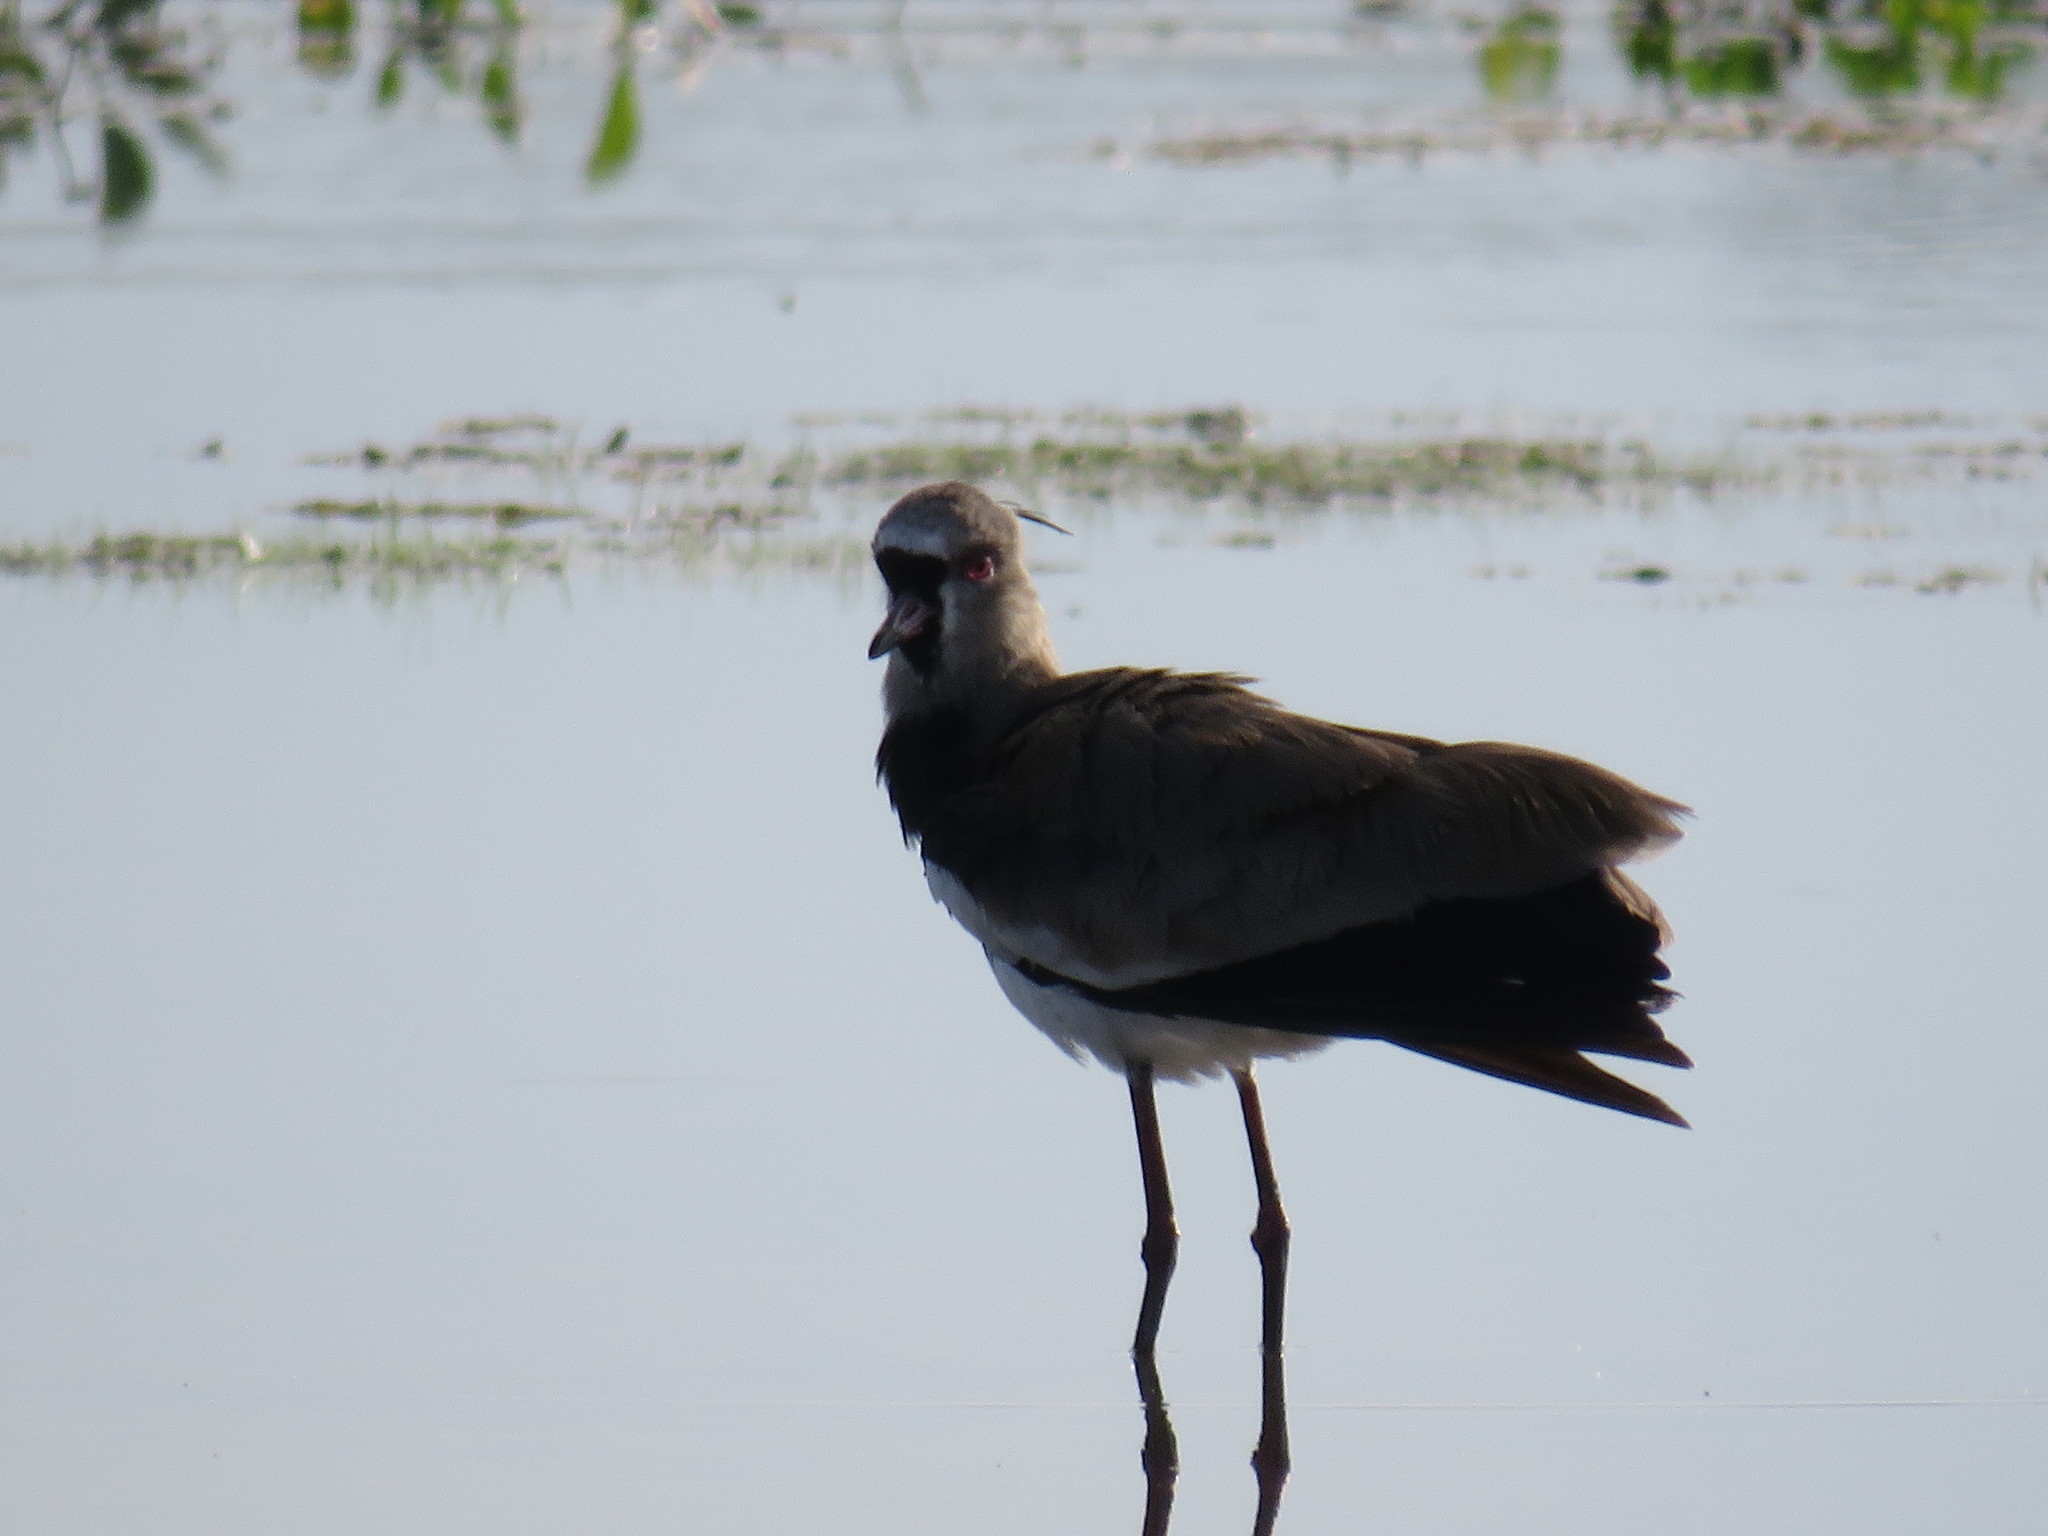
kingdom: Animalia
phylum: Chordata
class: Aves
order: Charadriiformes
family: Charadriidae
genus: Vanellus
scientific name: Vanellus chilensis
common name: Southern lapwing
